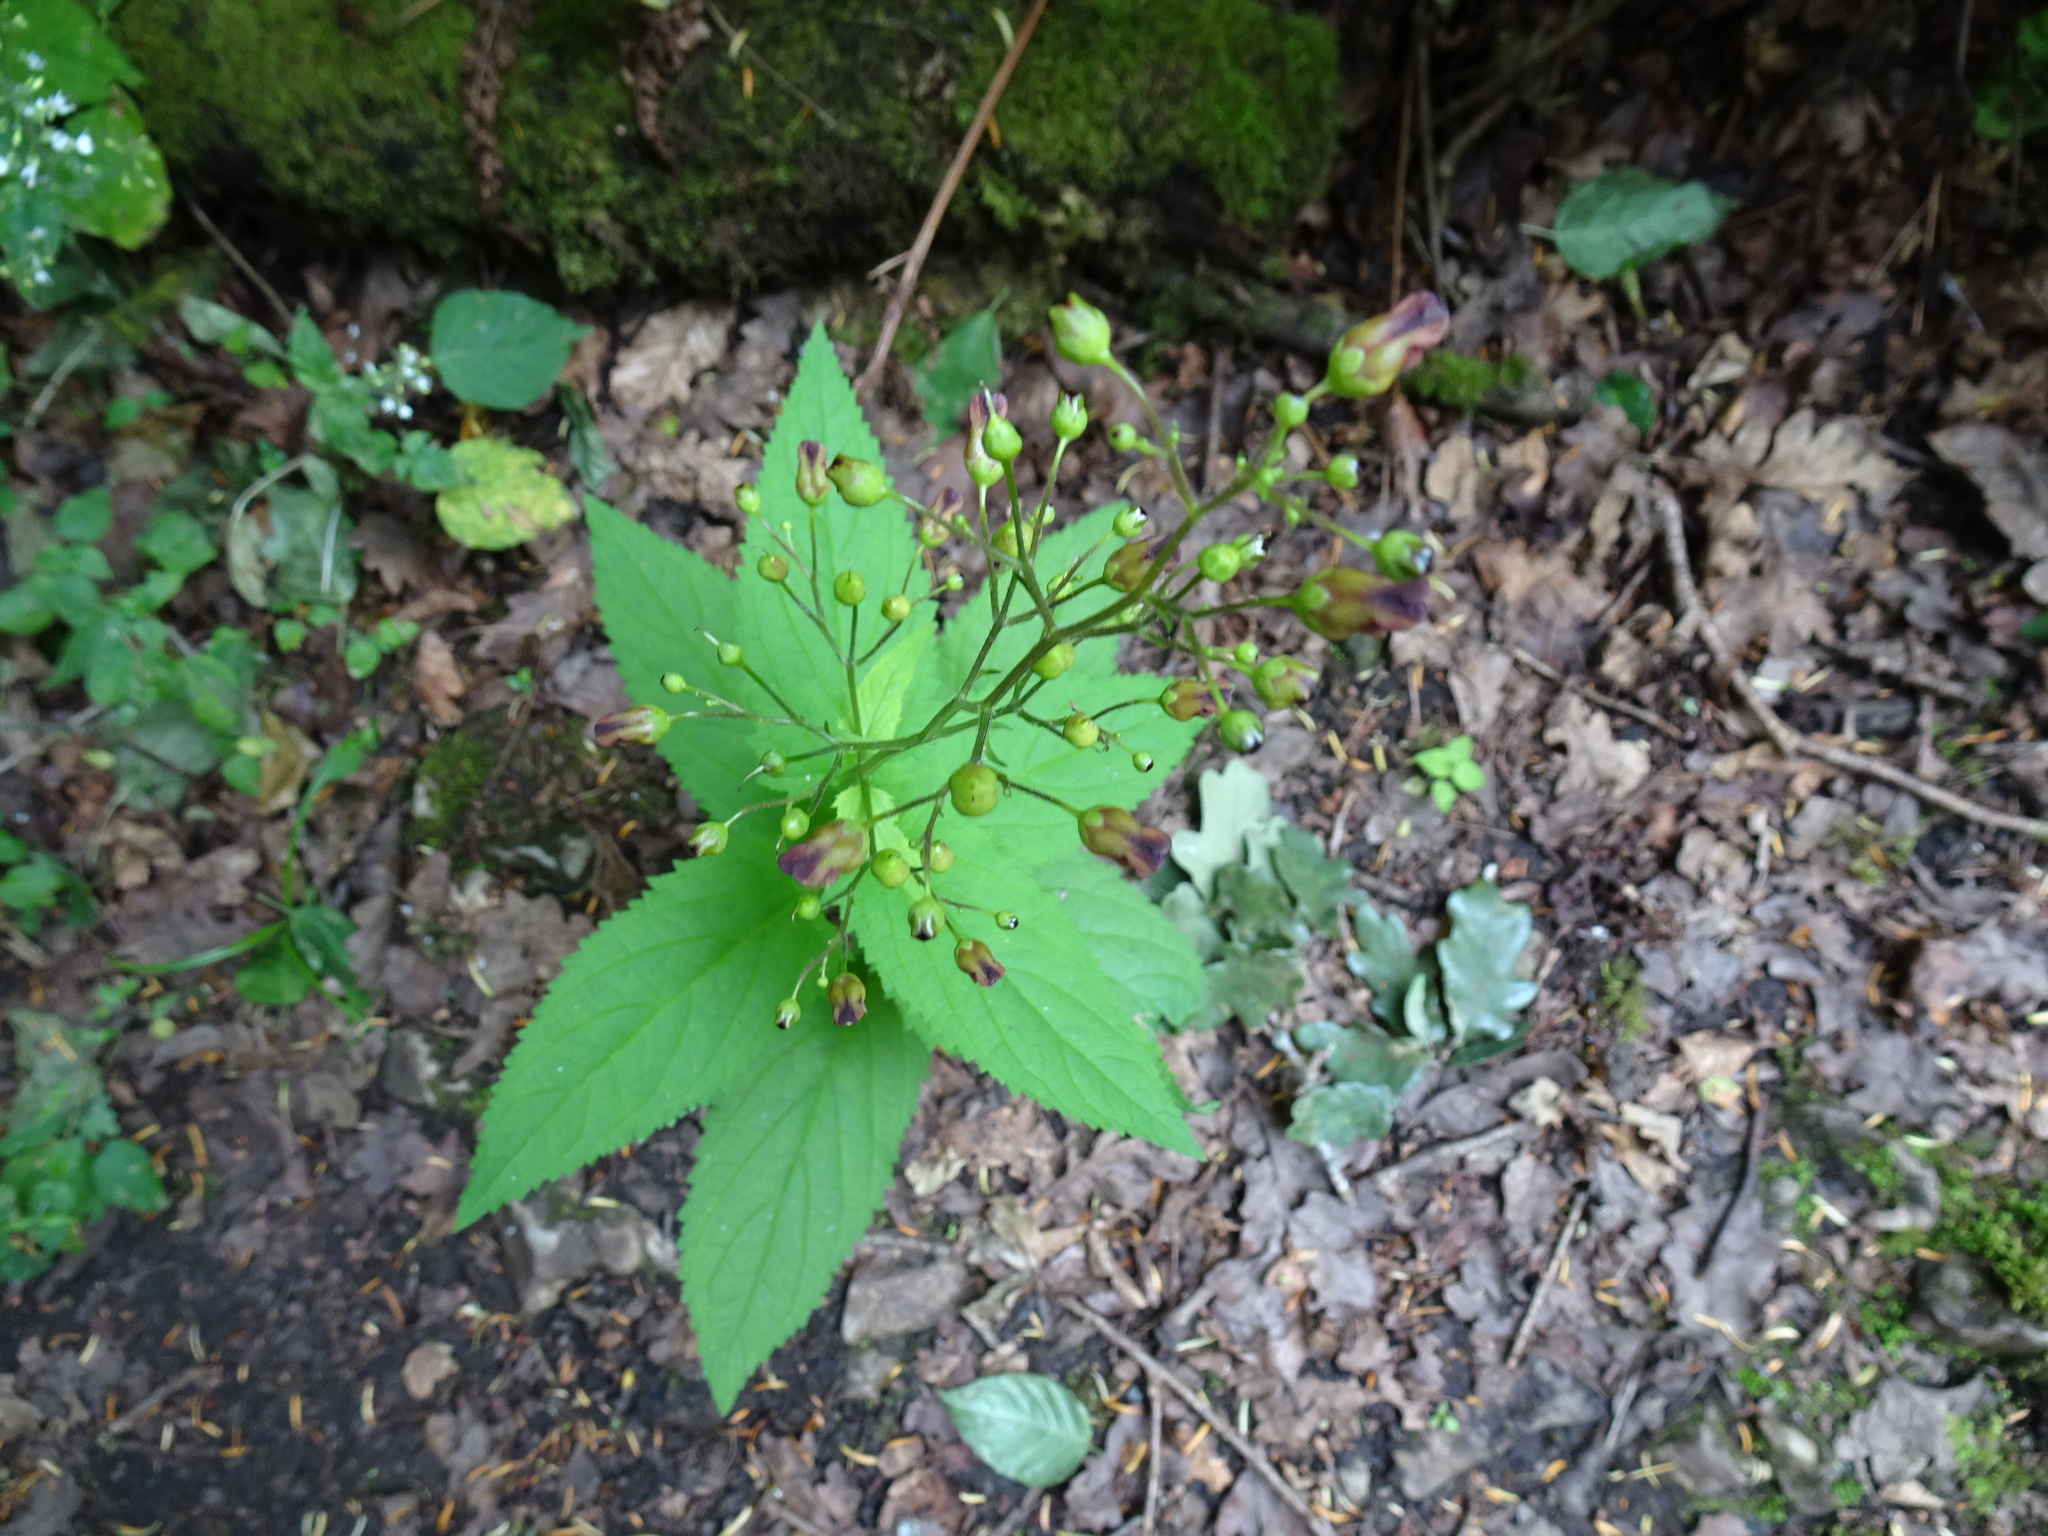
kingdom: Plantae
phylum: Tracheophyta
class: Magnoliopsida
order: Lamiales
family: Scrophulariaceae
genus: Scrophularia
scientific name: Scrophularia nodosa
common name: Common figwort
